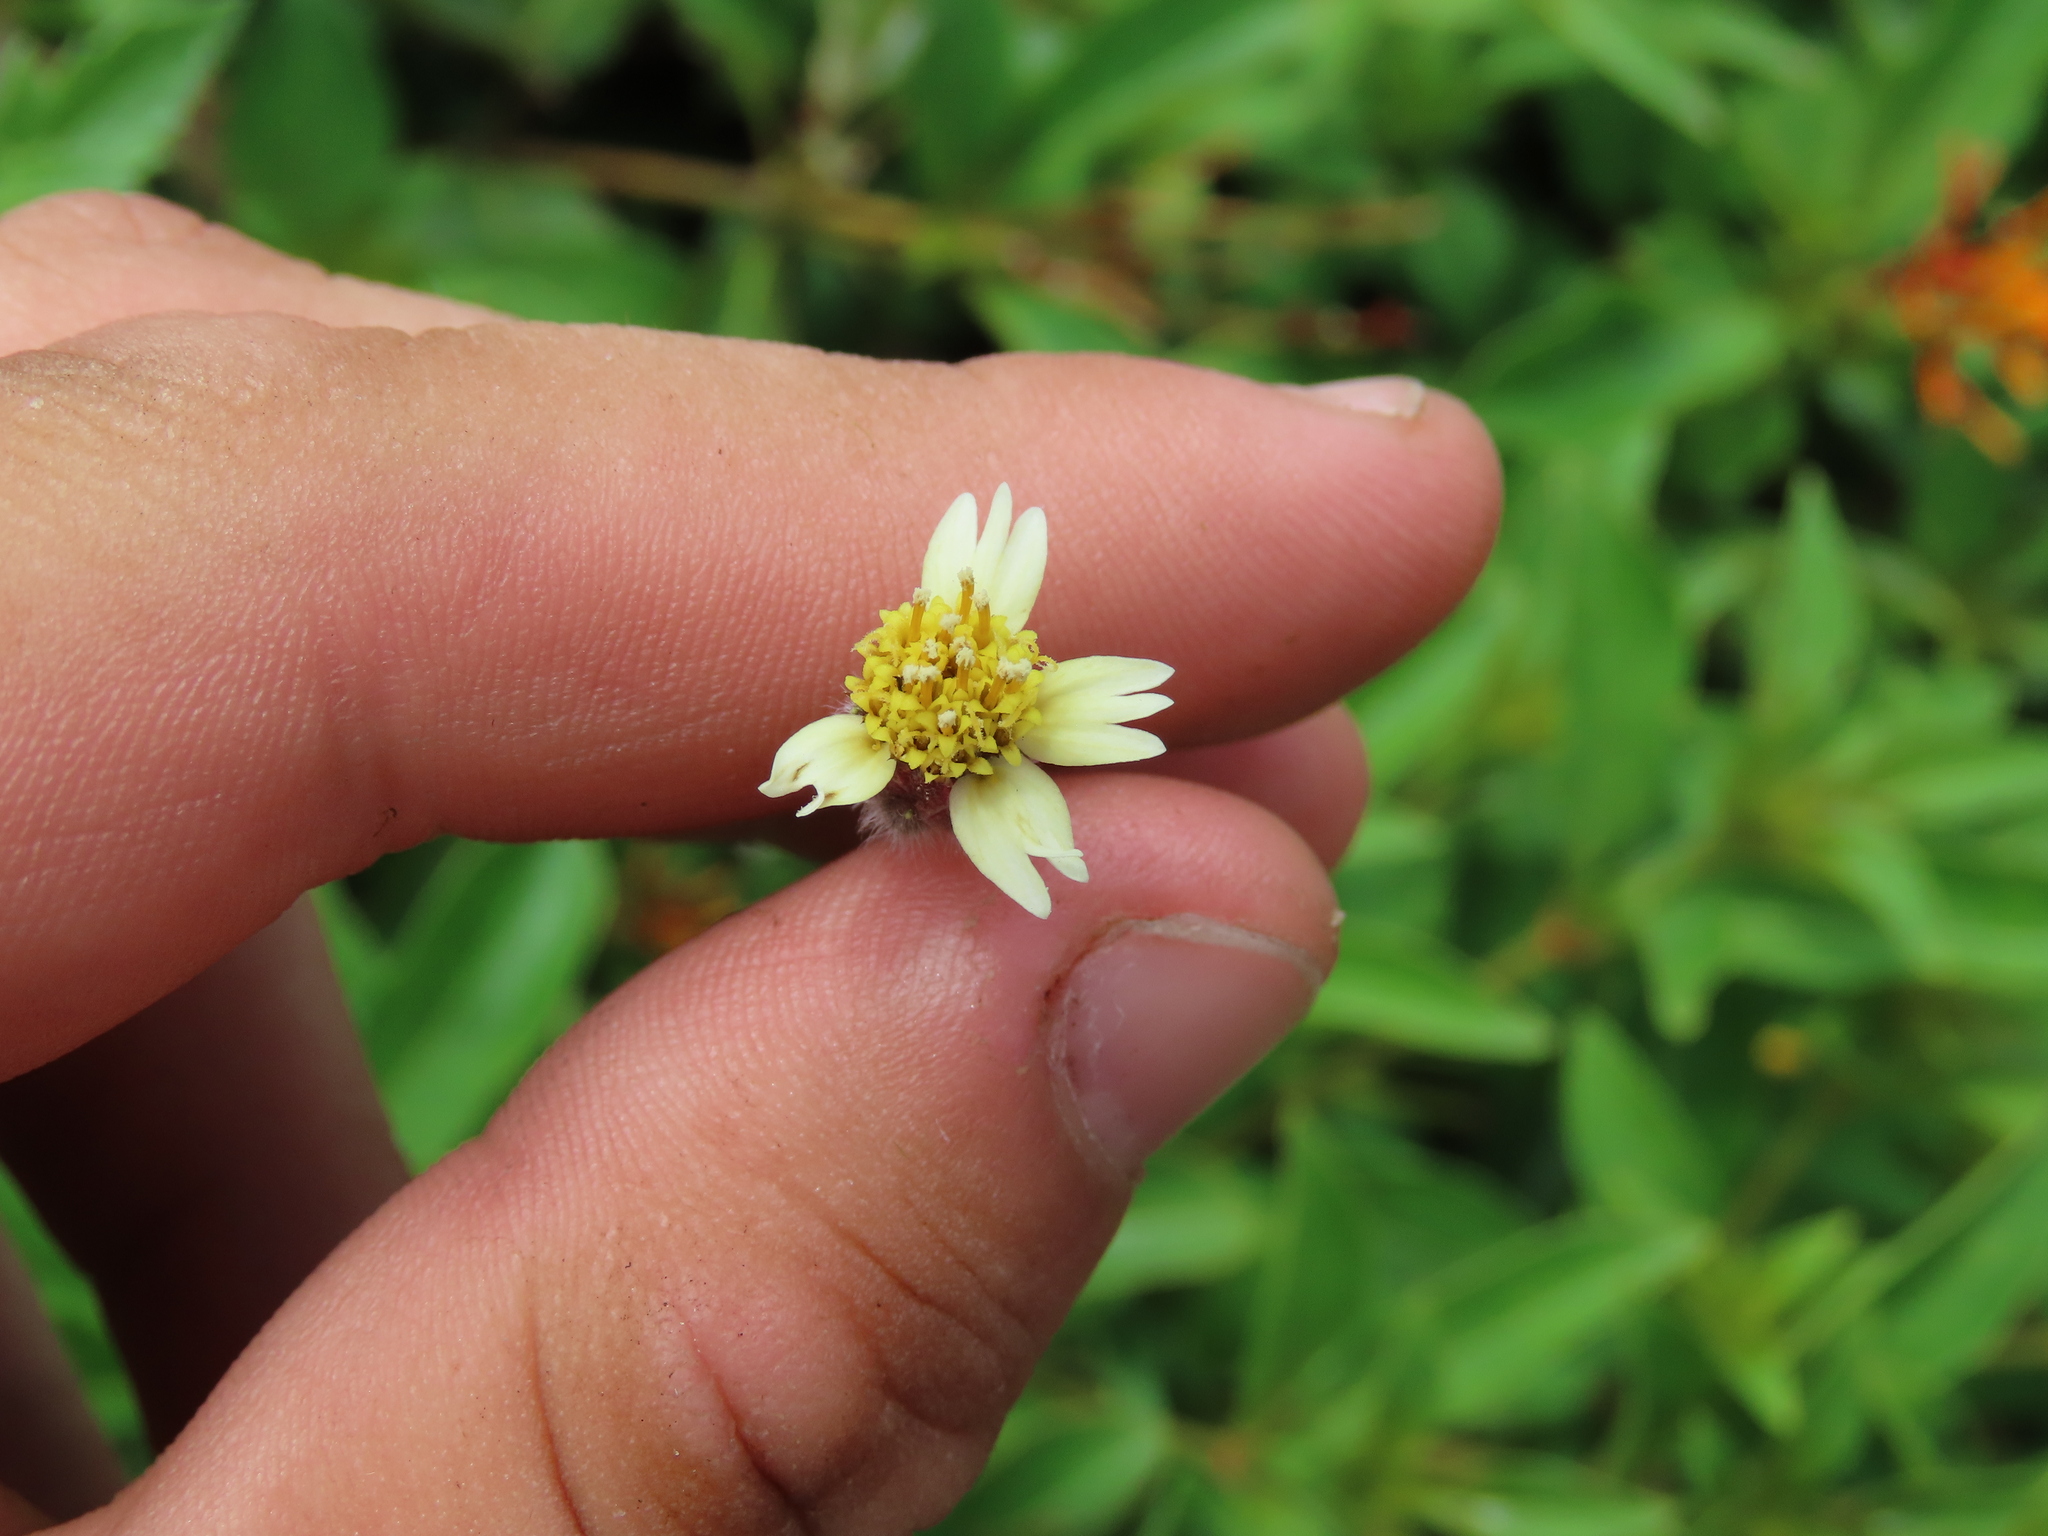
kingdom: Plantae
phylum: Tracheophyta
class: Magnoliopsida
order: Asterales
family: Asteraceae
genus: Tridax
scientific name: Tridax procumbens
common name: Coatbuttons
